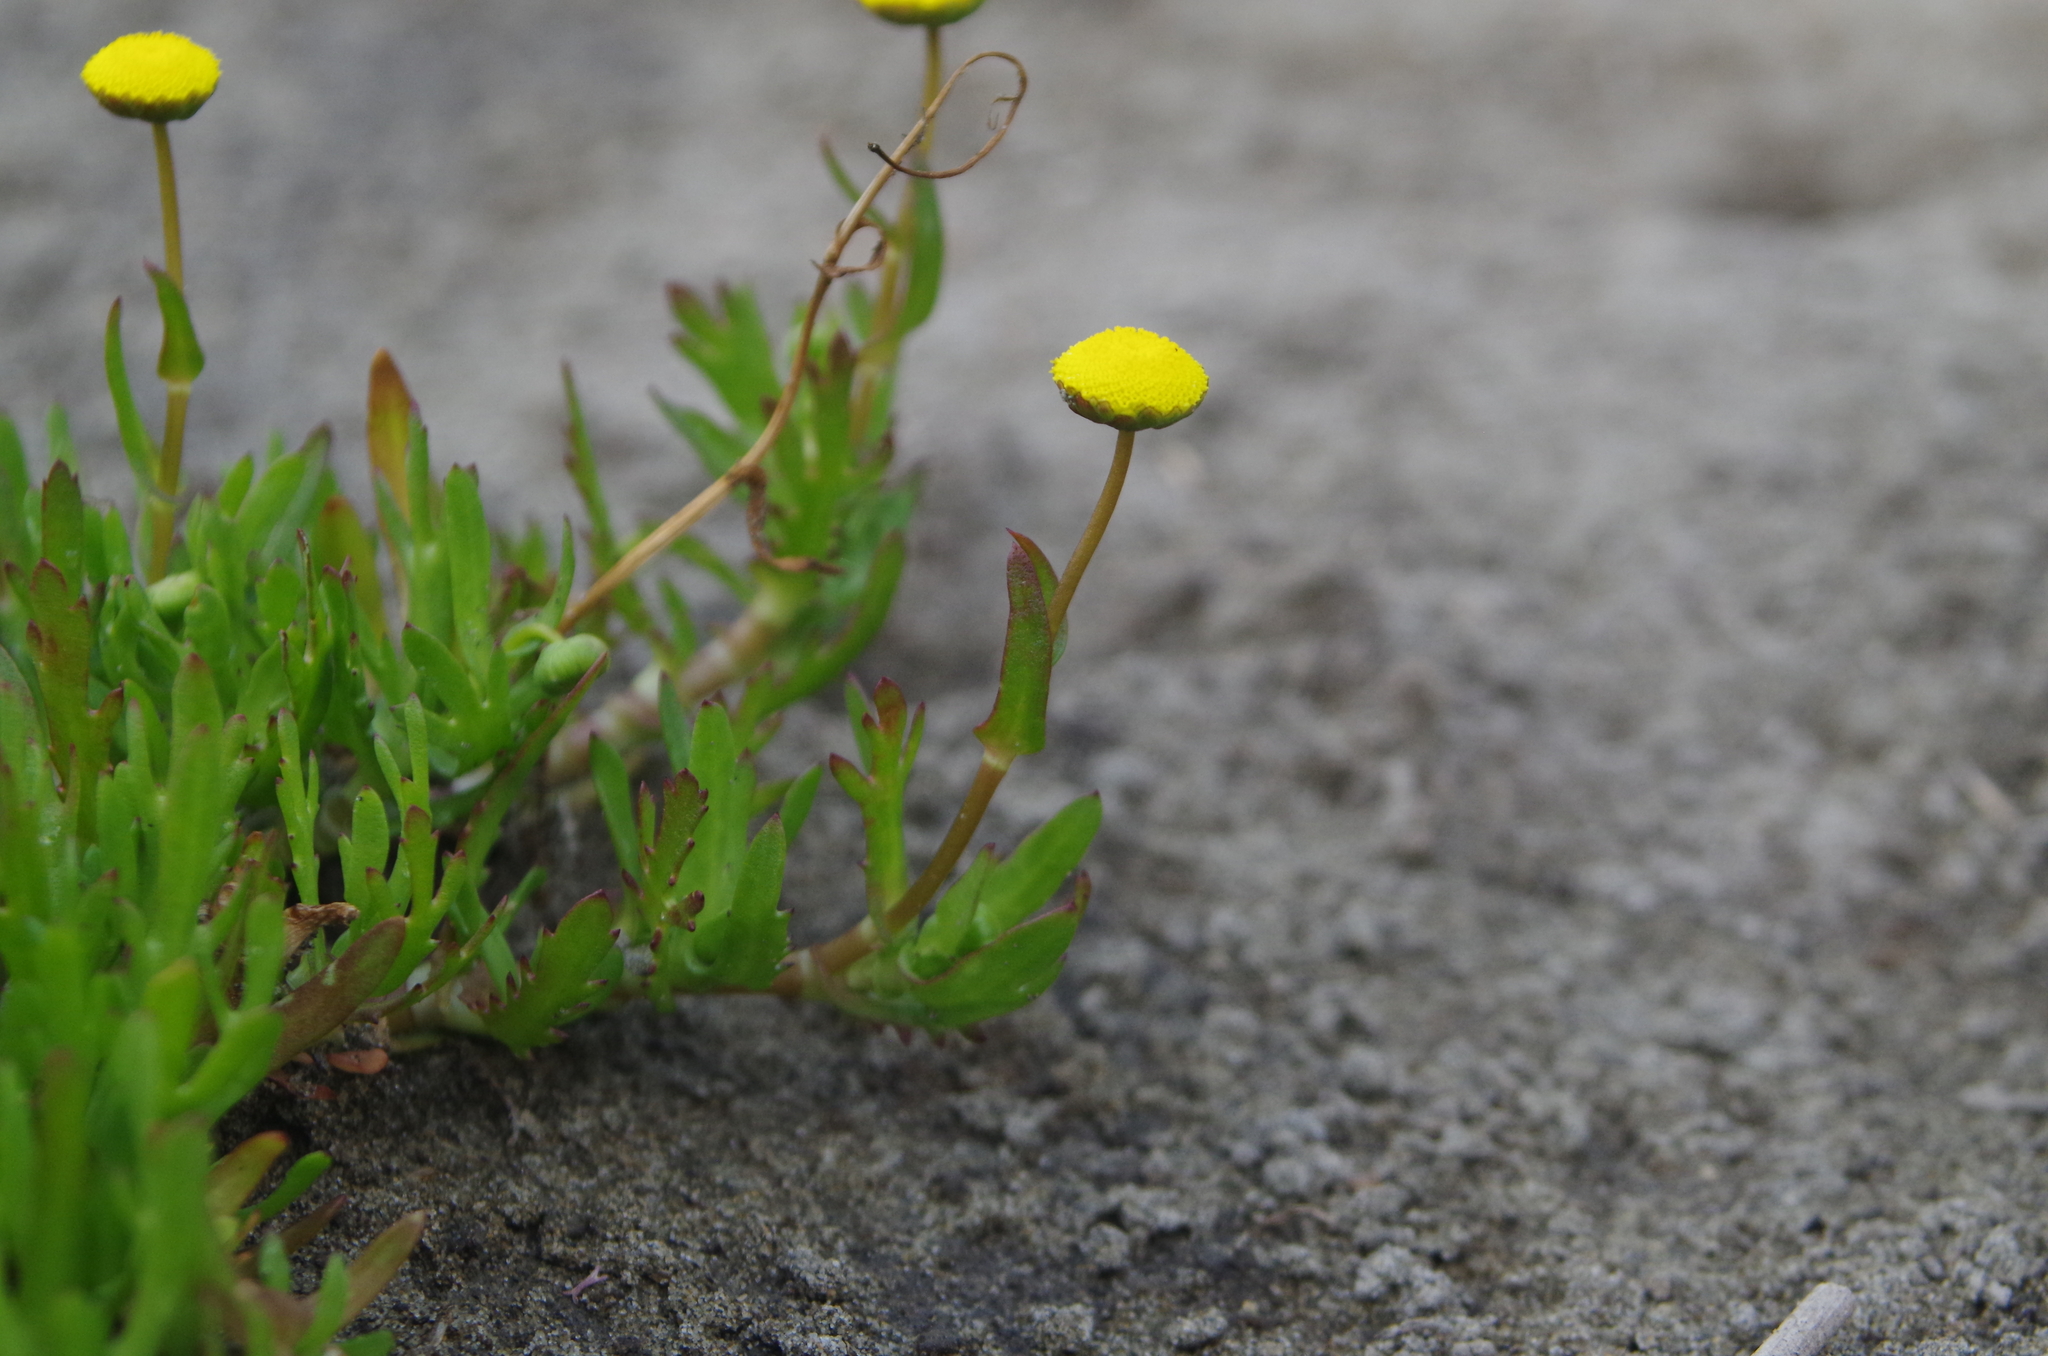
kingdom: Plantae
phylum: Tracheophyta
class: Magnoliopsida
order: Asterales
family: Asteraceae
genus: Cotula
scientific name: Cotula coronopifolia
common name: Buttonweed
